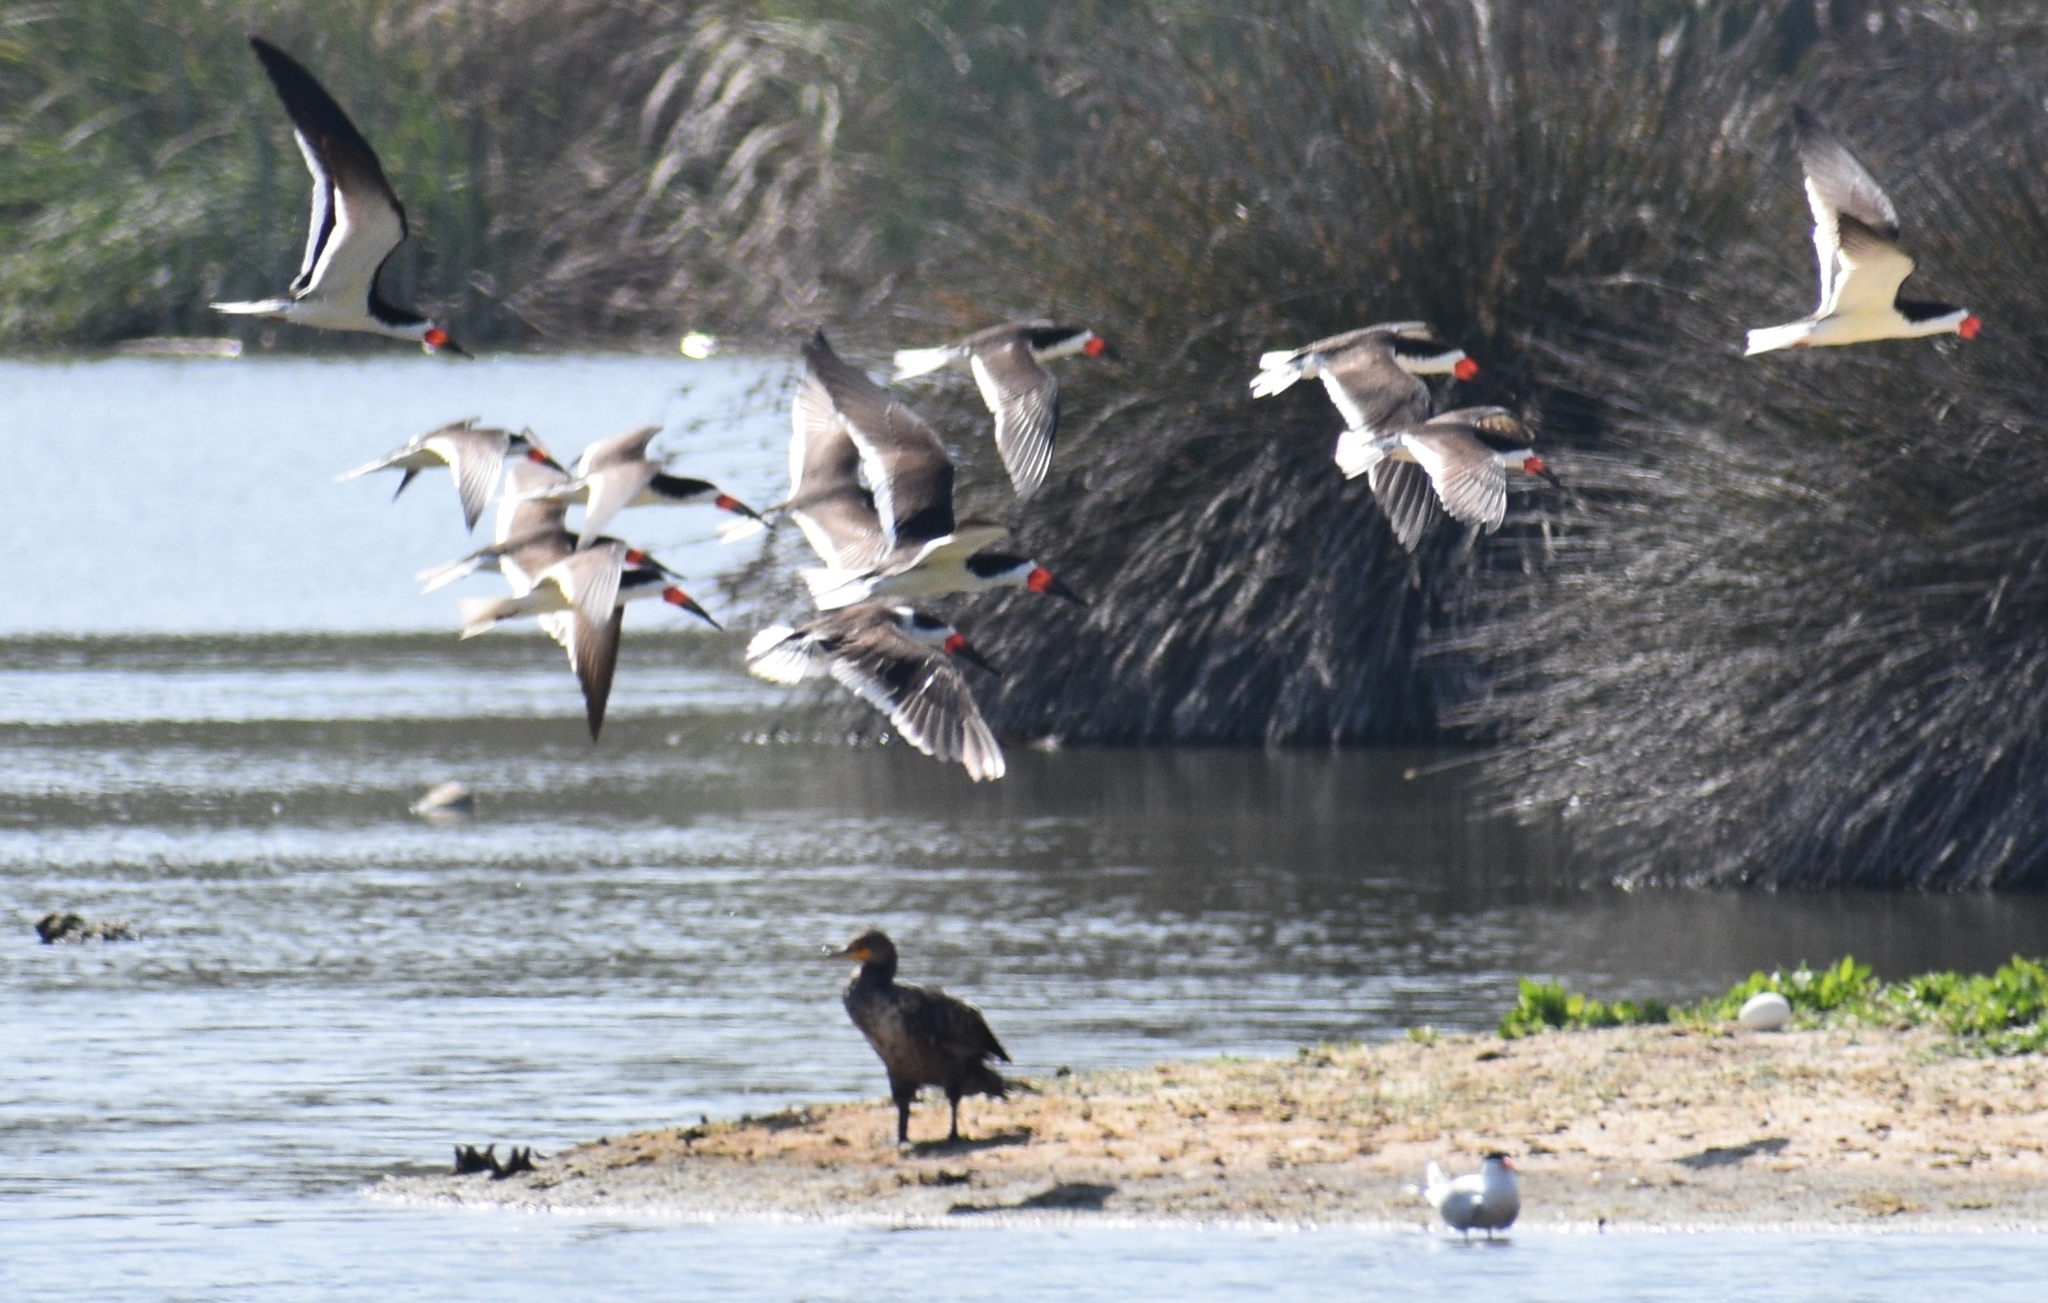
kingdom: Animalia
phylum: Chordata
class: Aves
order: Anseriformes
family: Anatidae
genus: Branta
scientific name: Branta canadensis
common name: Canada goose
